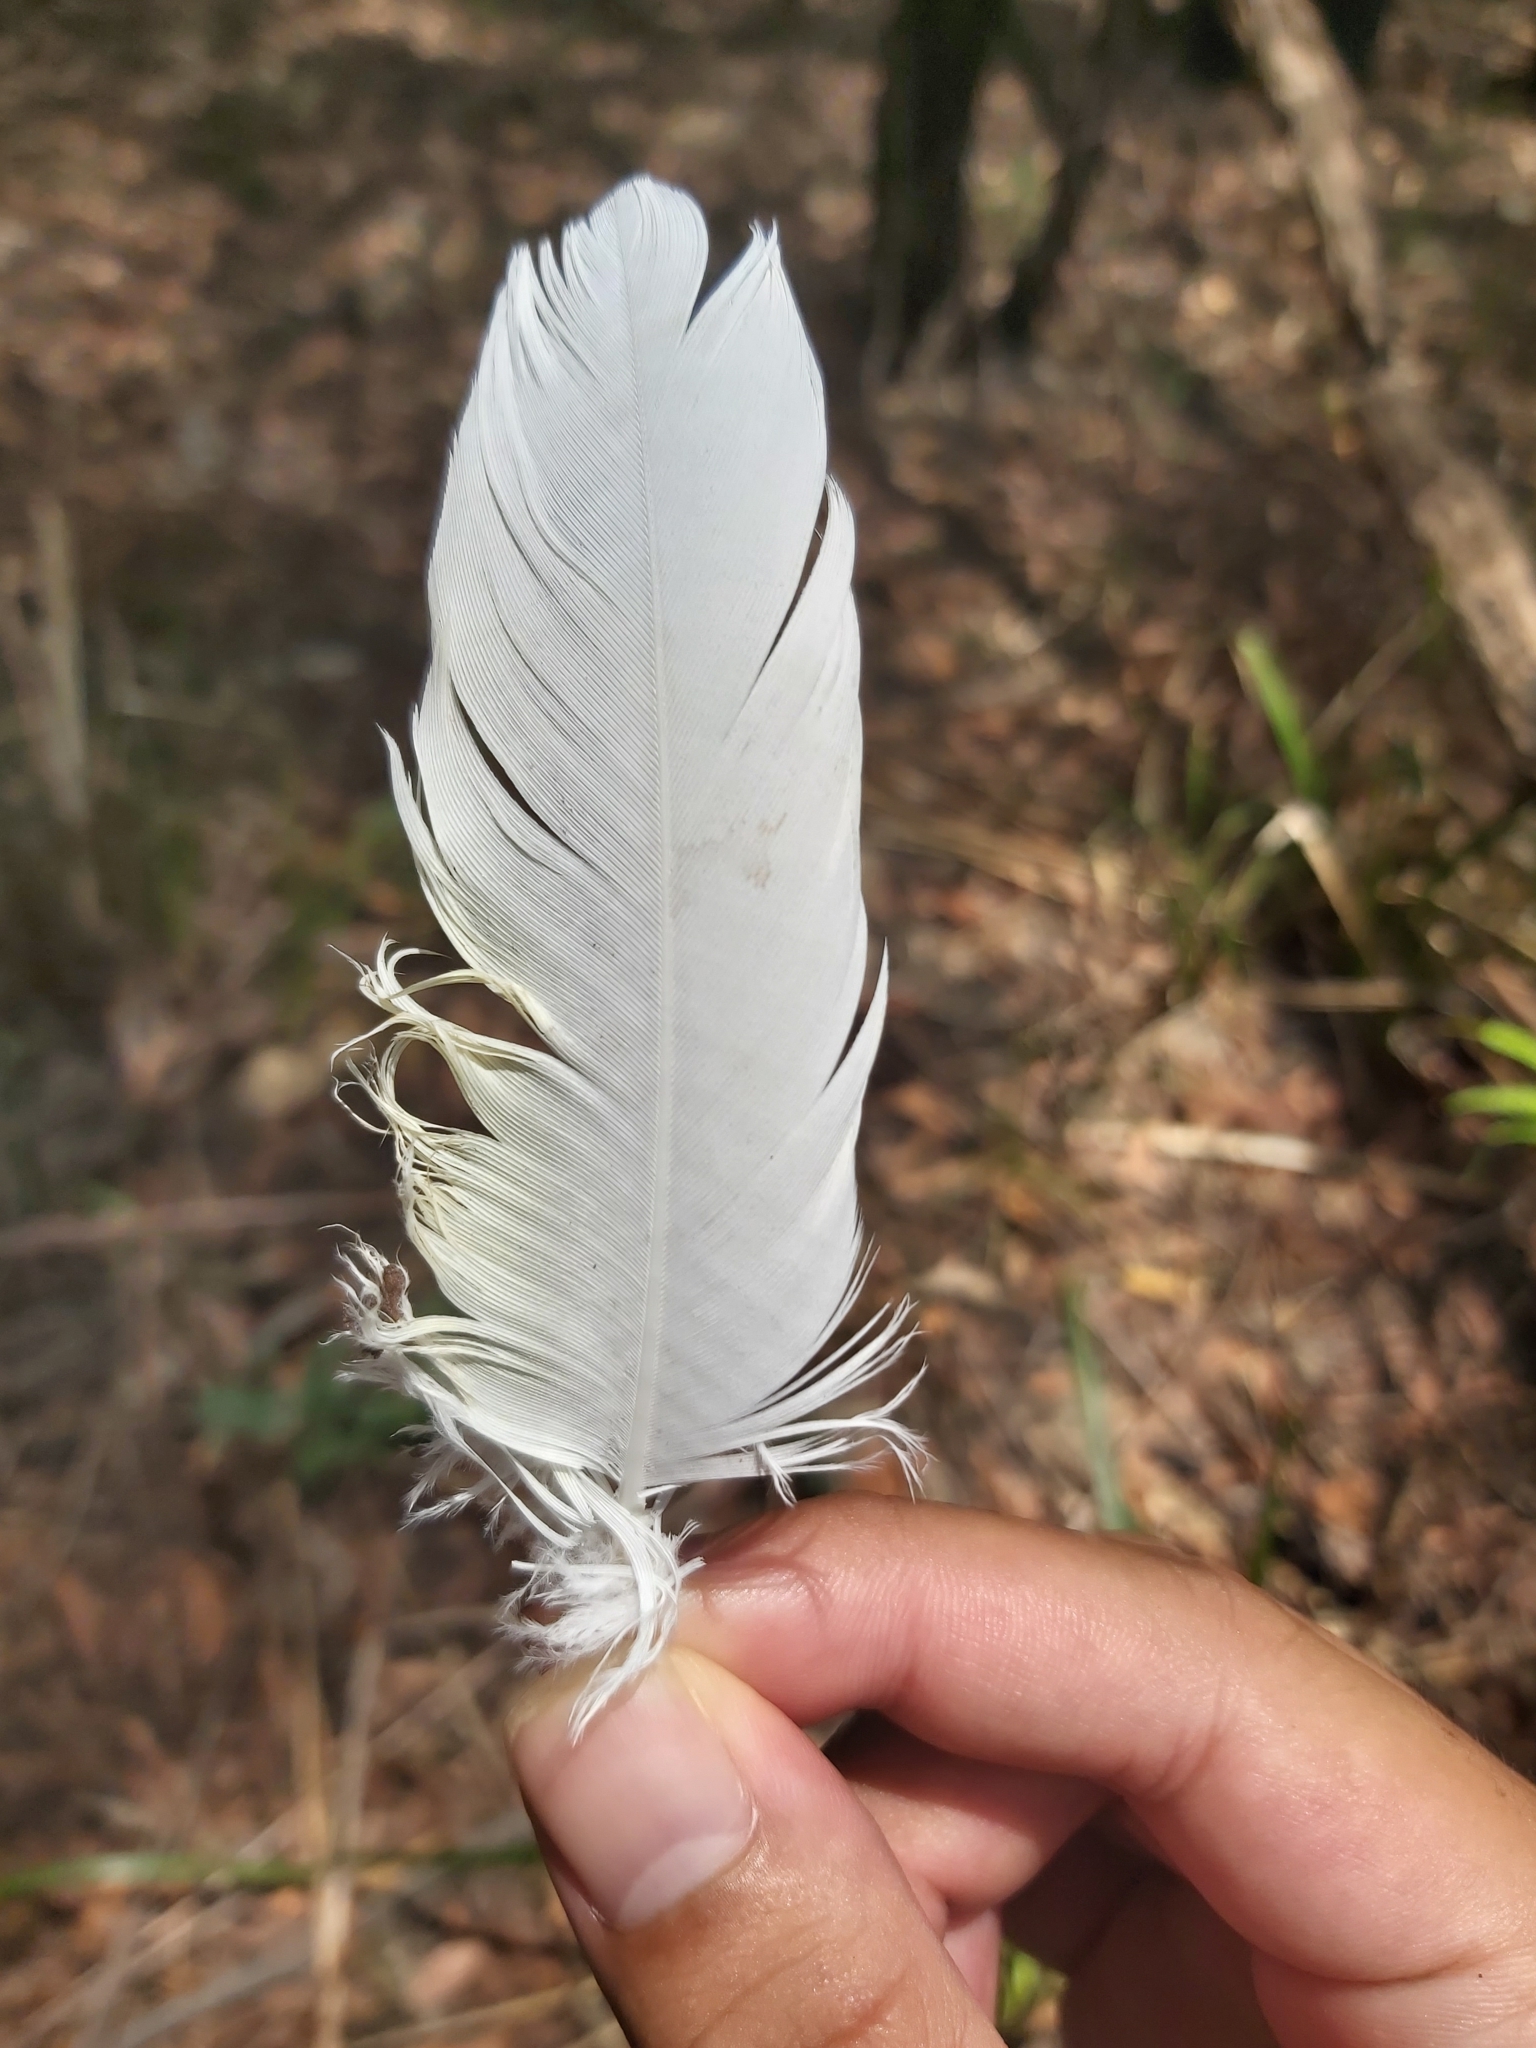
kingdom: Animalia
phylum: Chordata
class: Aves
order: Psittaciformes
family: Psittacidae
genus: Cacatua
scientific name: Cacatua galerita
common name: Sulphur-crested cockatoo
